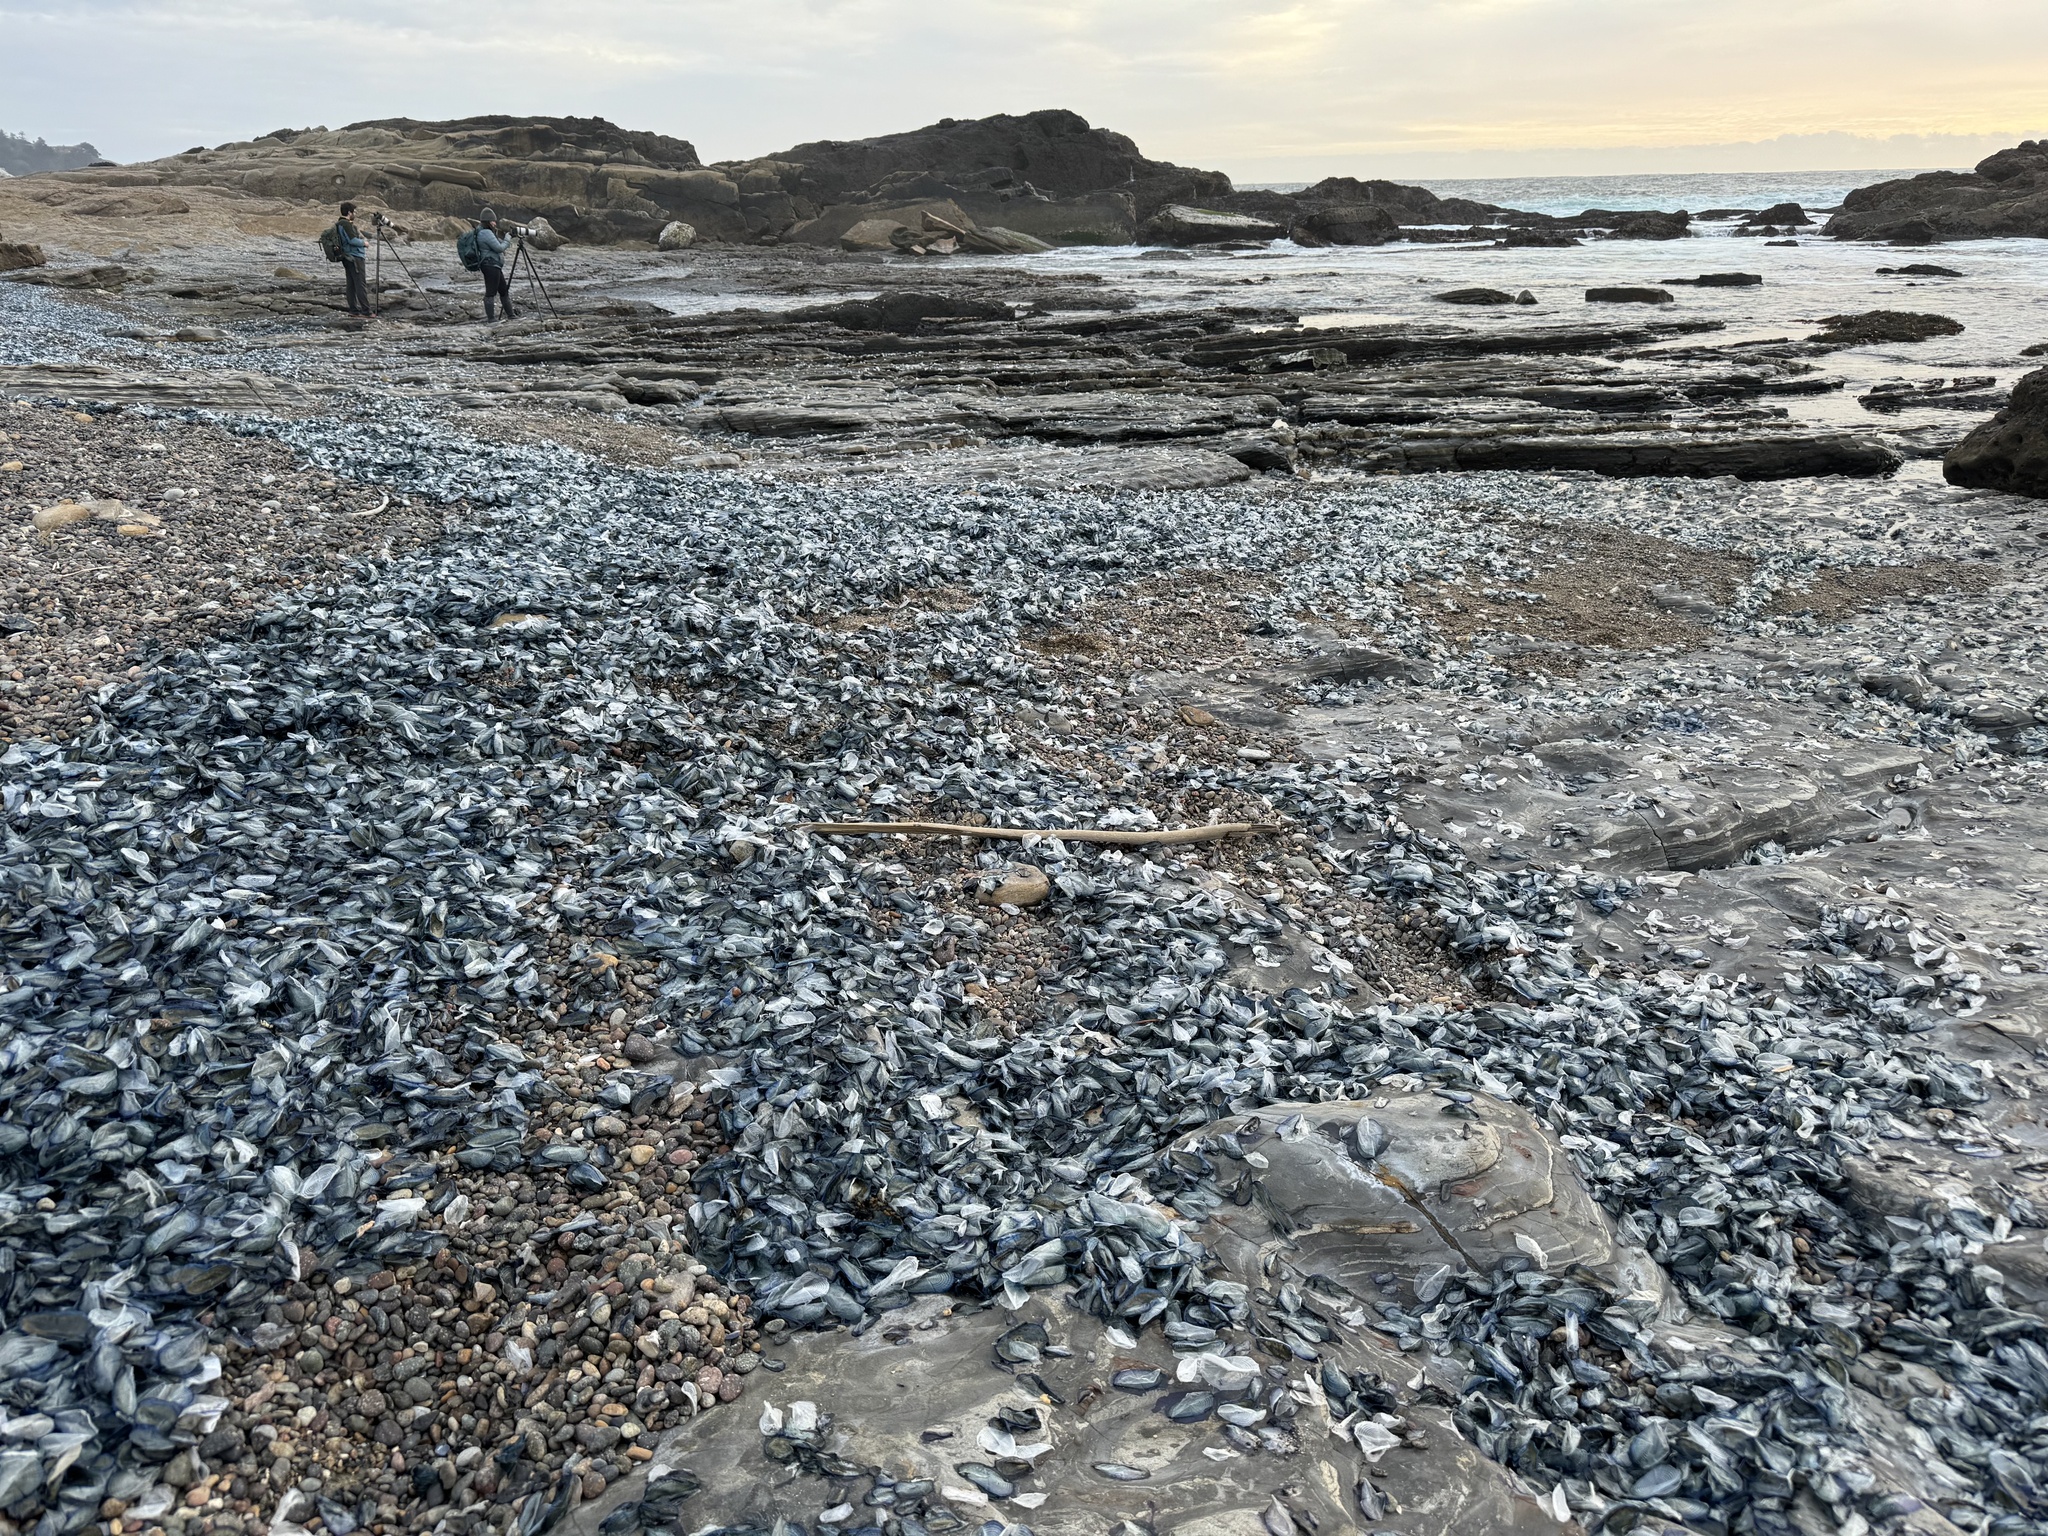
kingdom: Animalia
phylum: Cnidaria
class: Hydrozoa
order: Anthoathecata
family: Porpitidae
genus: Velella
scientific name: Velella velella
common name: By-the-wind-sailor
